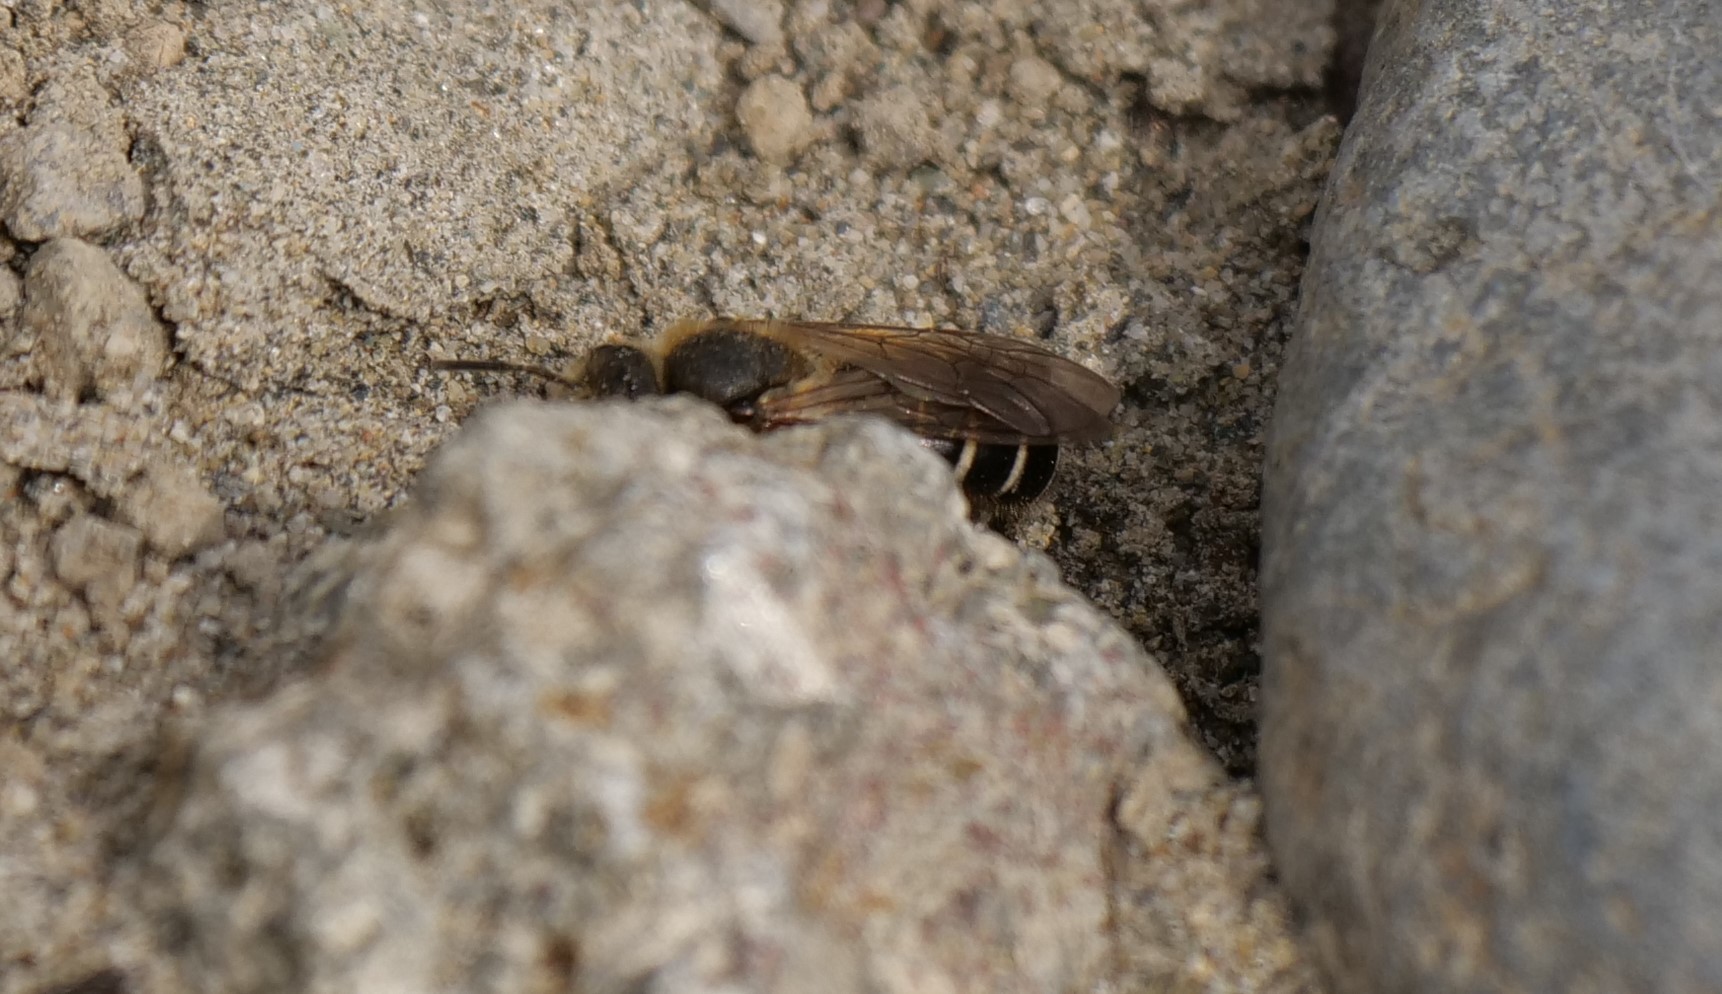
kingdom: Animalia
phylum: Arthropoda
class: Insecta
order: Hymenoptera
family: Halictidae
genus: Halictus
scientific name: Halictus rubicundus
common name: Orange-legged furrow bee
